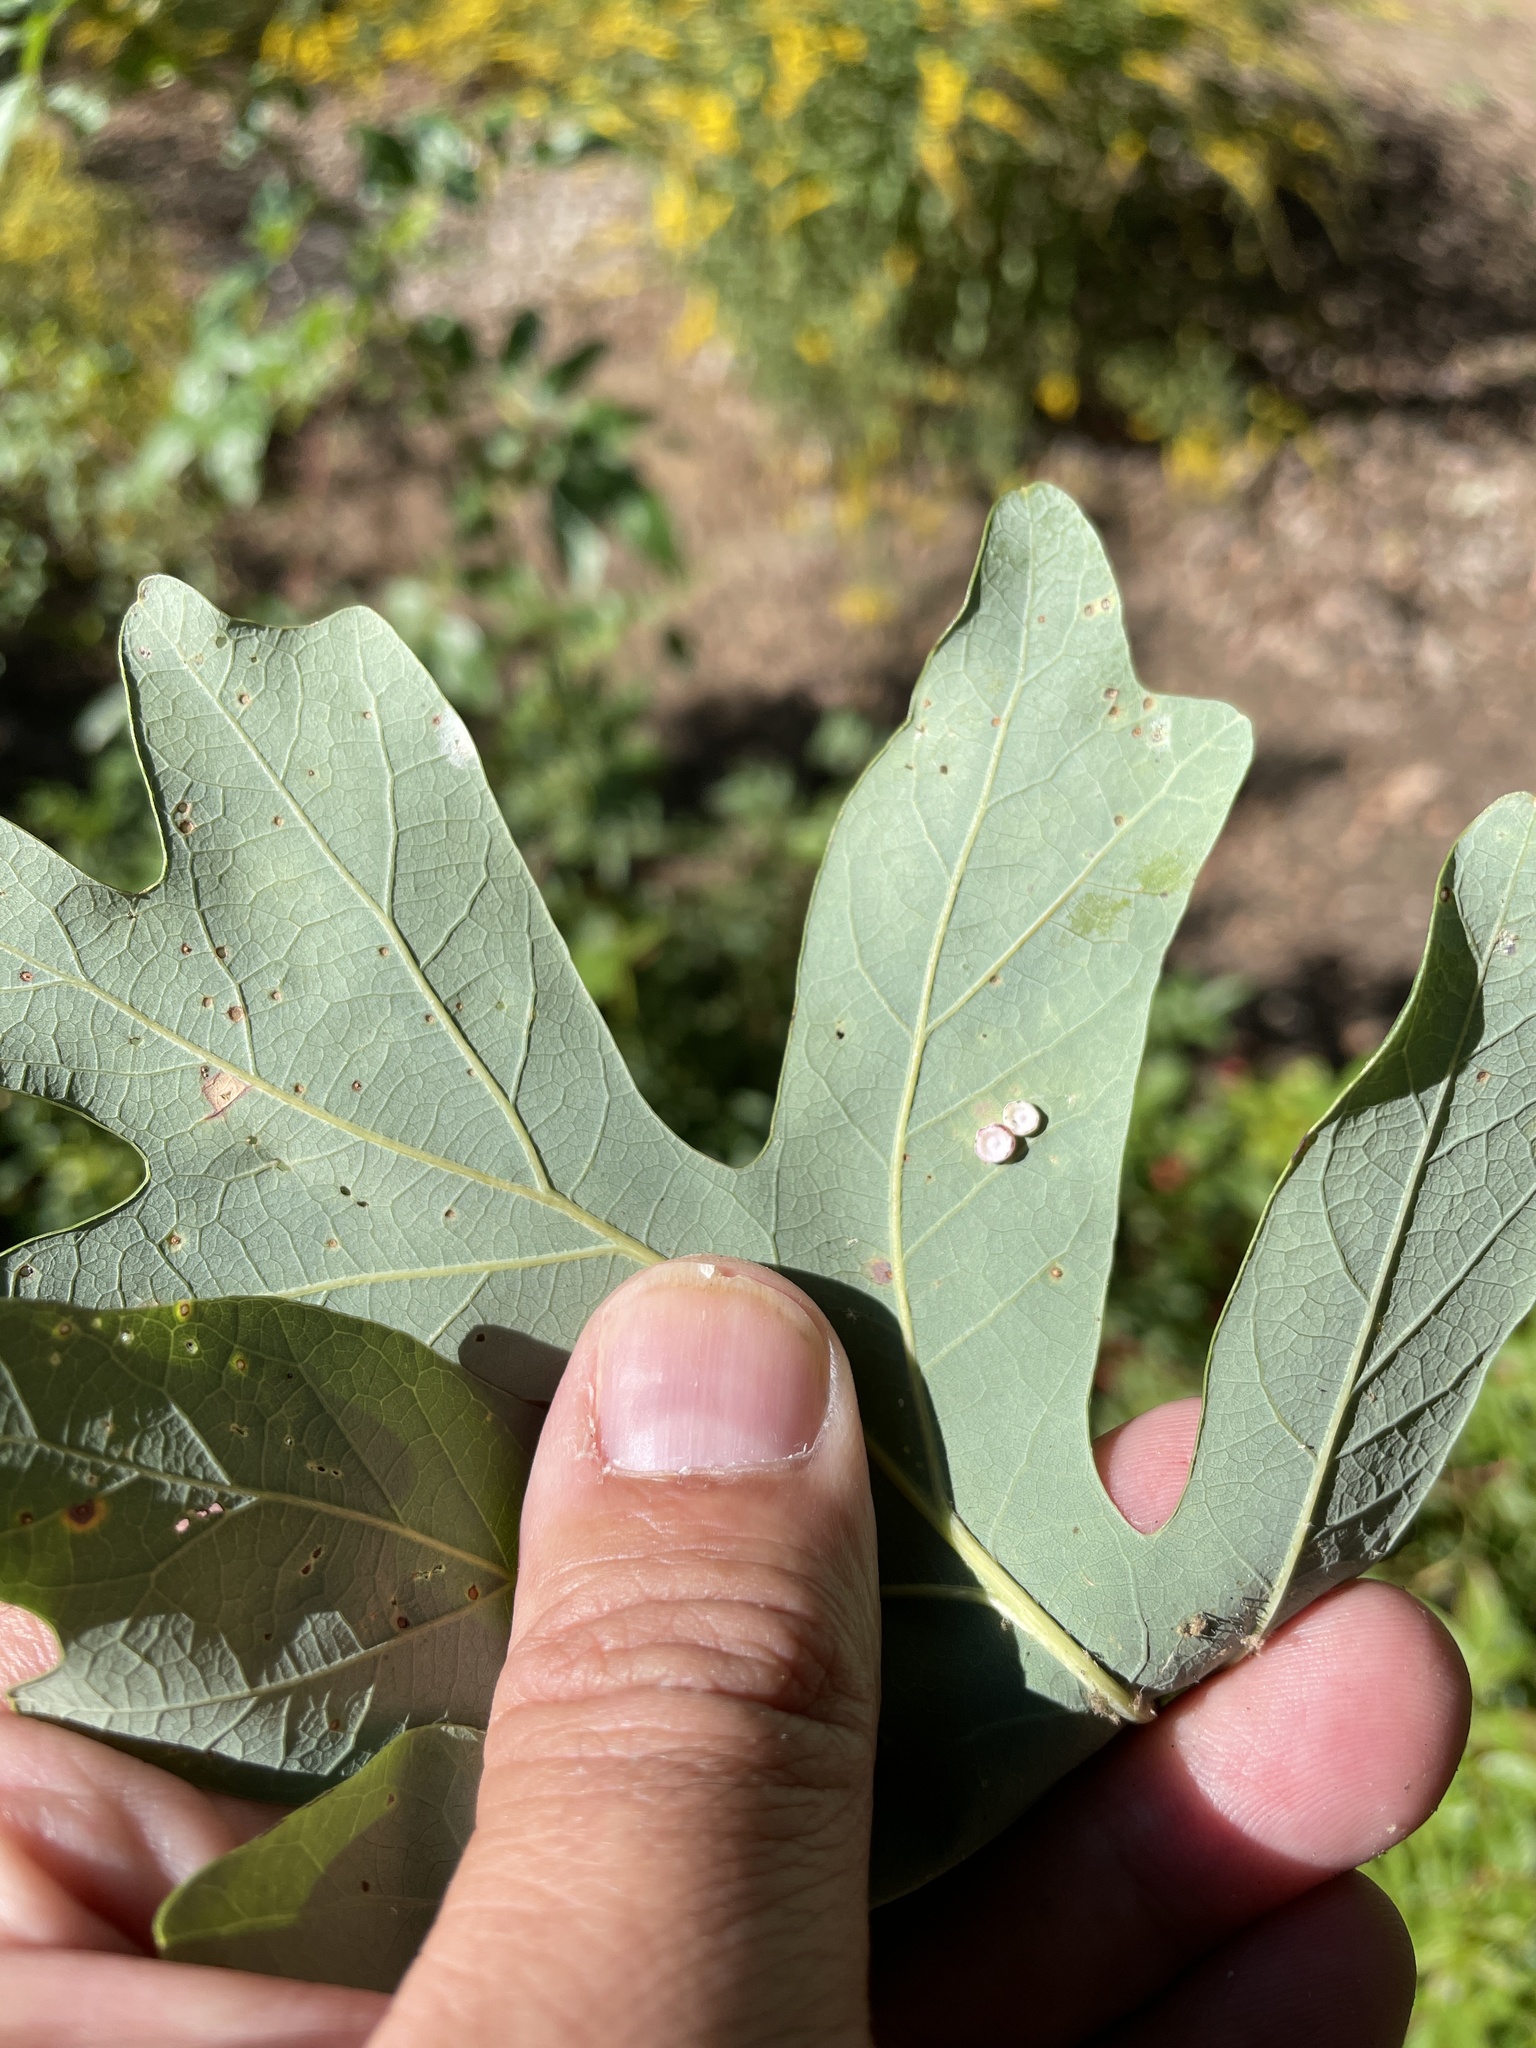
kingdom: Animalia
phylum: Arthropoda
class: Insecta
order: Hymenoptera
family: Cynipidae
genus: Phylloteras
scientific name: Phylloteras poculum
